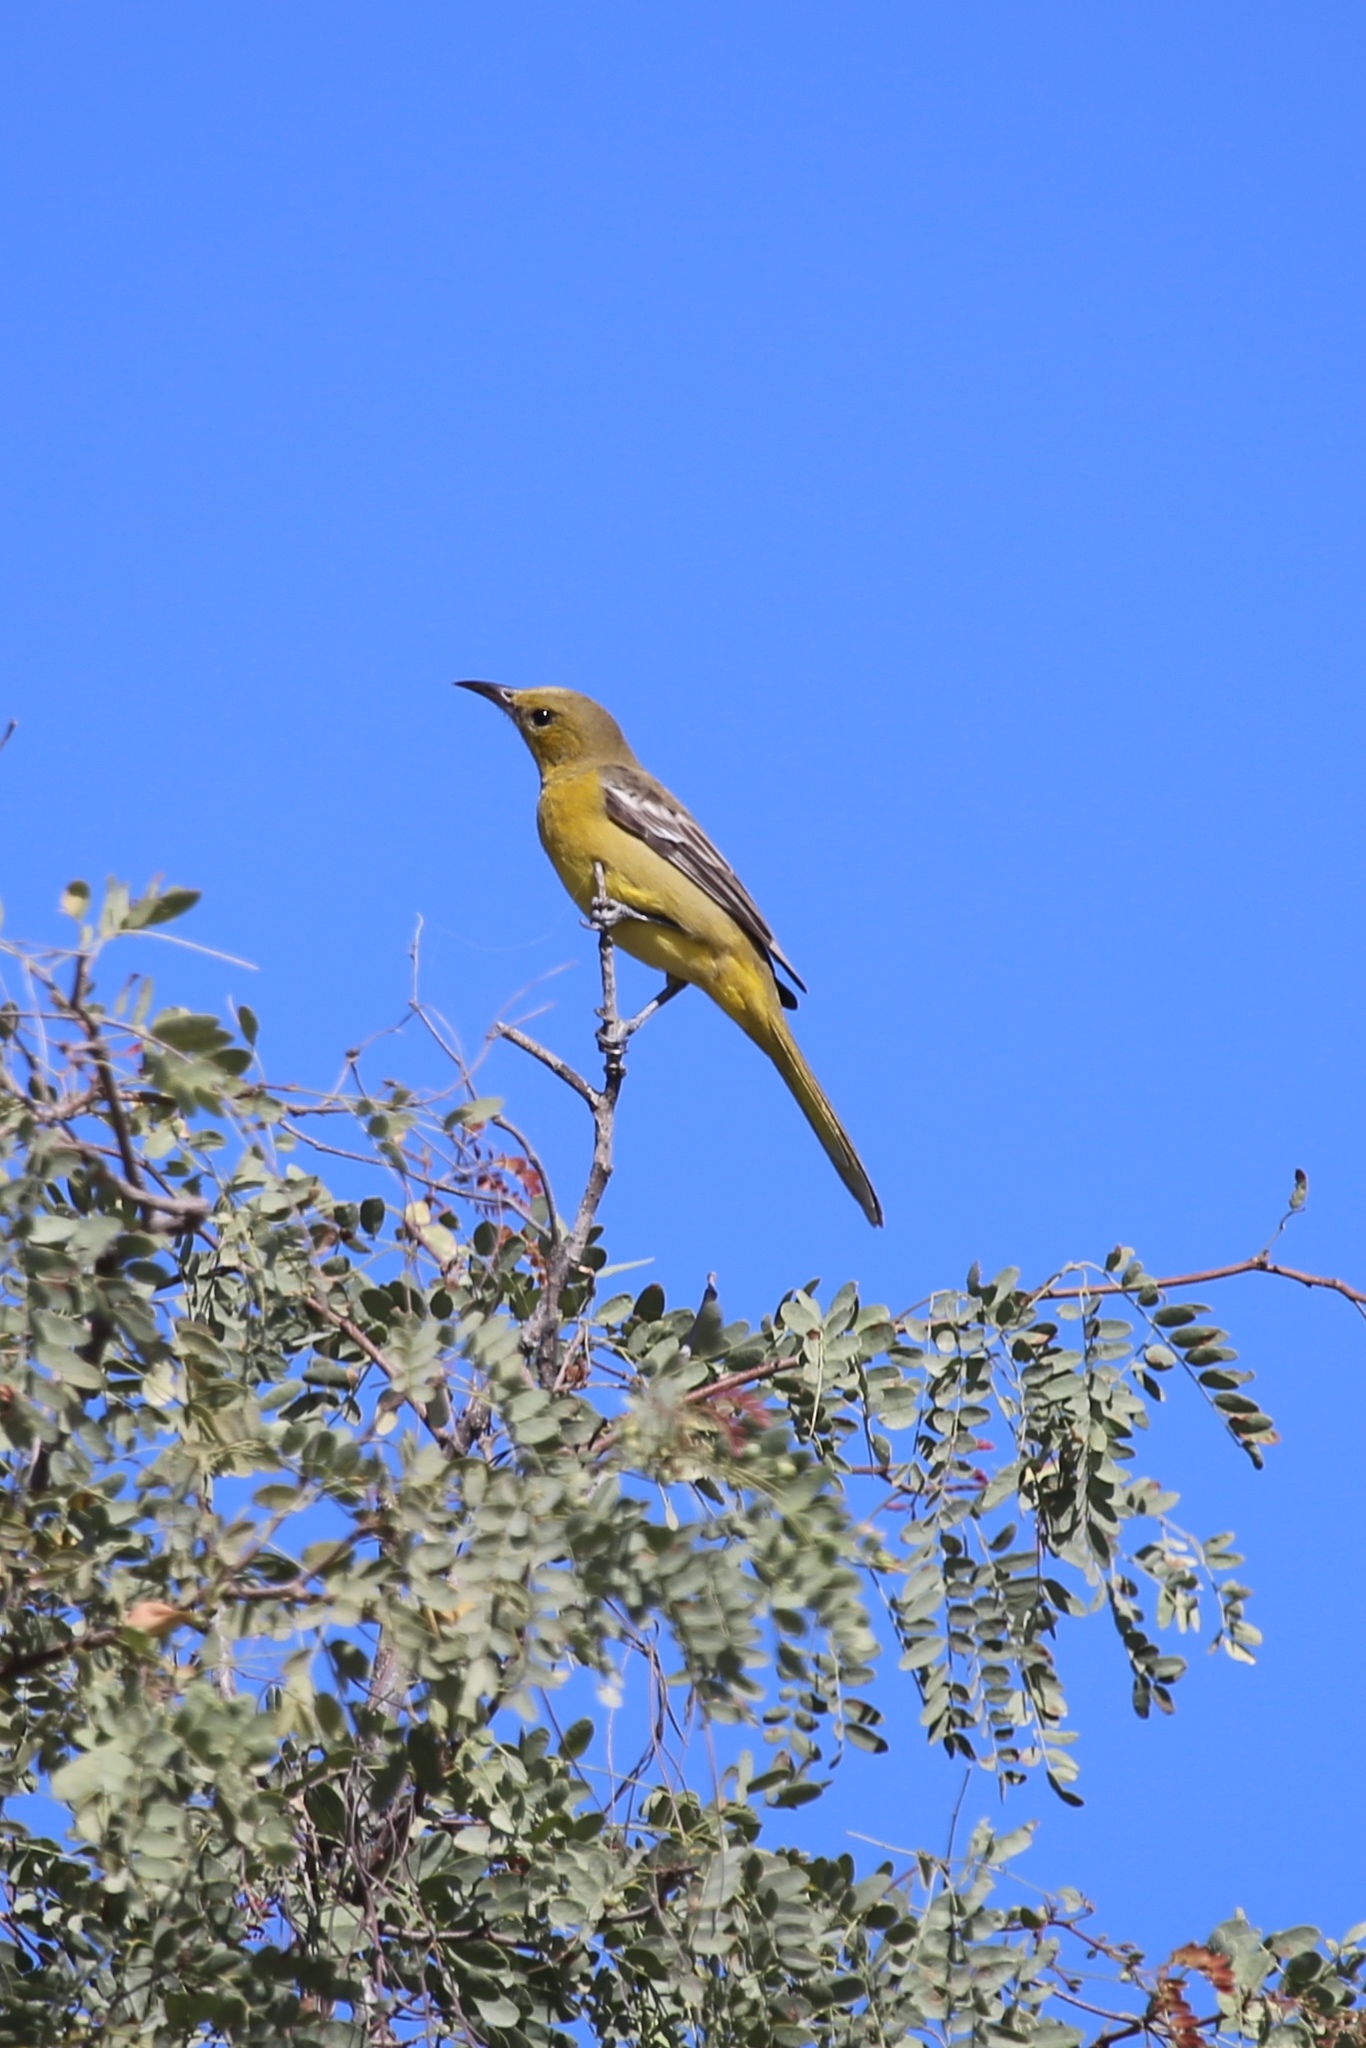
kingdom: Animalia
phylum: Chordata
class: Aves
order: Passeriformes
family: Icteridae
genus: Icterus
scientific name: Icterus cucullatus
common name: Hooded oriole
